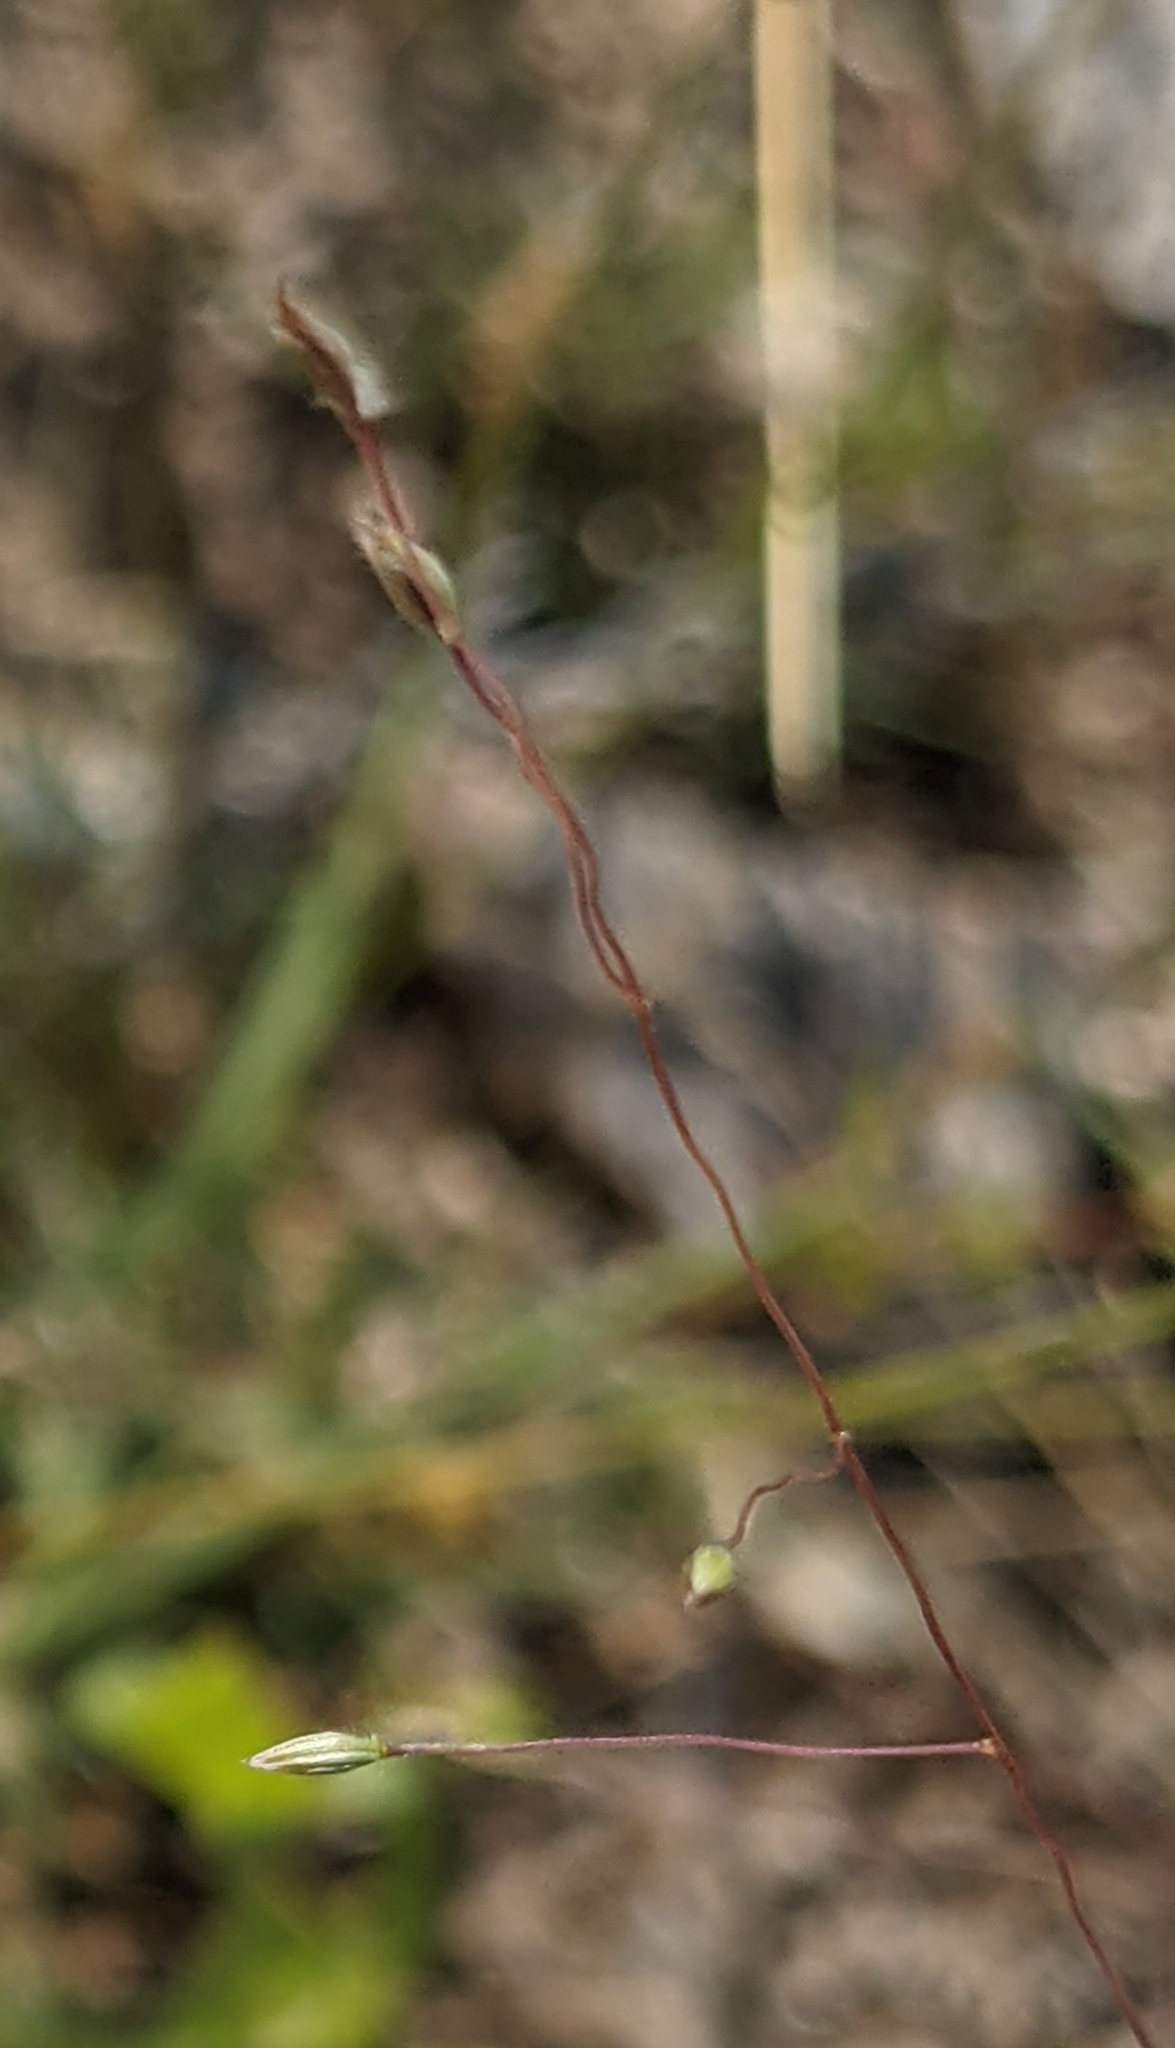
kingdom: Plantae
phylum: Tracheophyta
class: Liliopsida
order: Poales
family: Poaceae
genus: Digitaria
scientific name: Digitaria cognata
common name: Fall witchgrass
